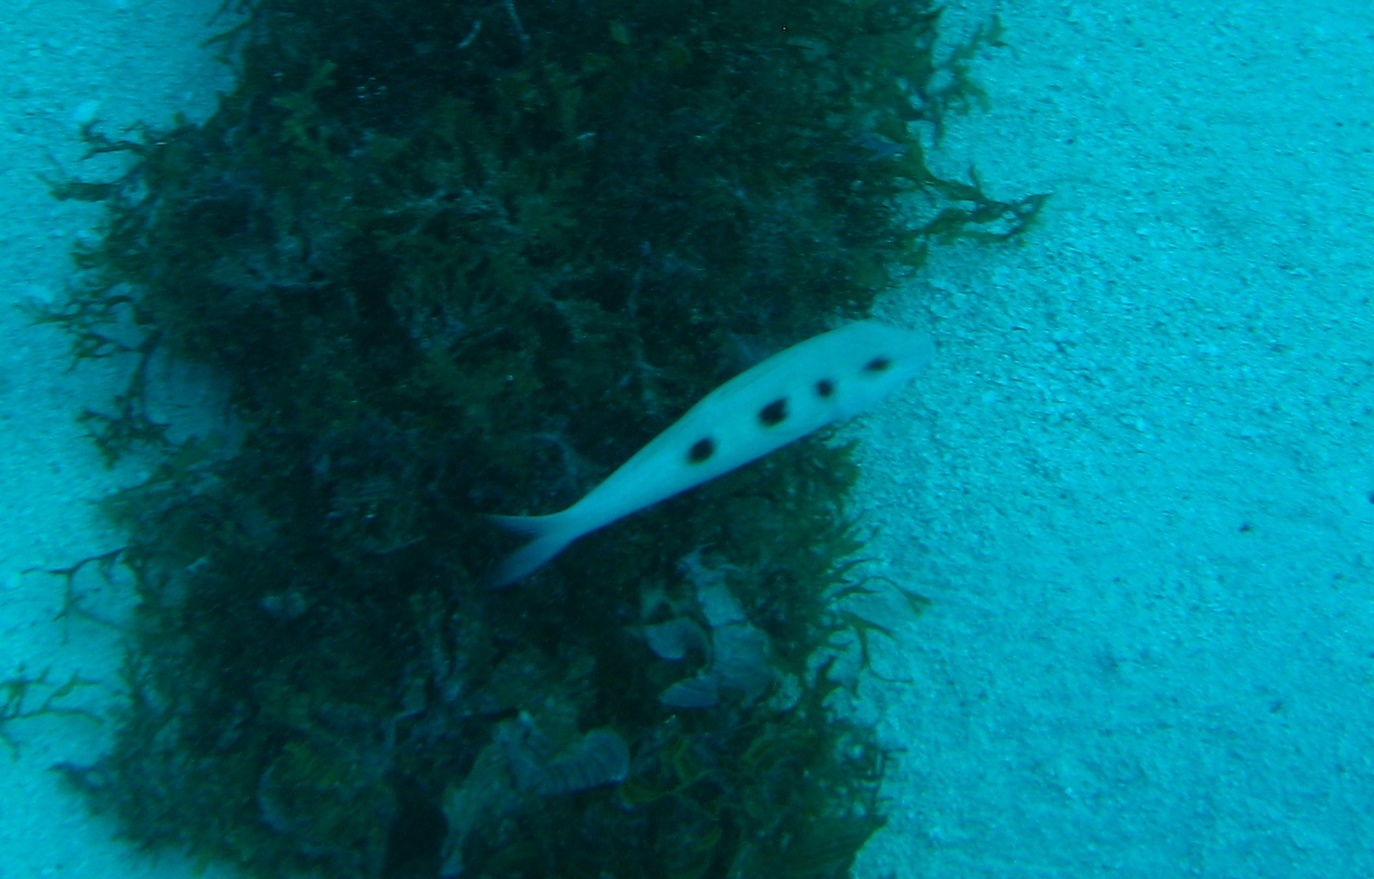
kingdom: Animalia
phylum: Chordata
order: Perciformes
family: Mullidae
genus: Pseudupeneus
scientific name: Pseudupeneus maculatus
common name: Spotted goatfish
